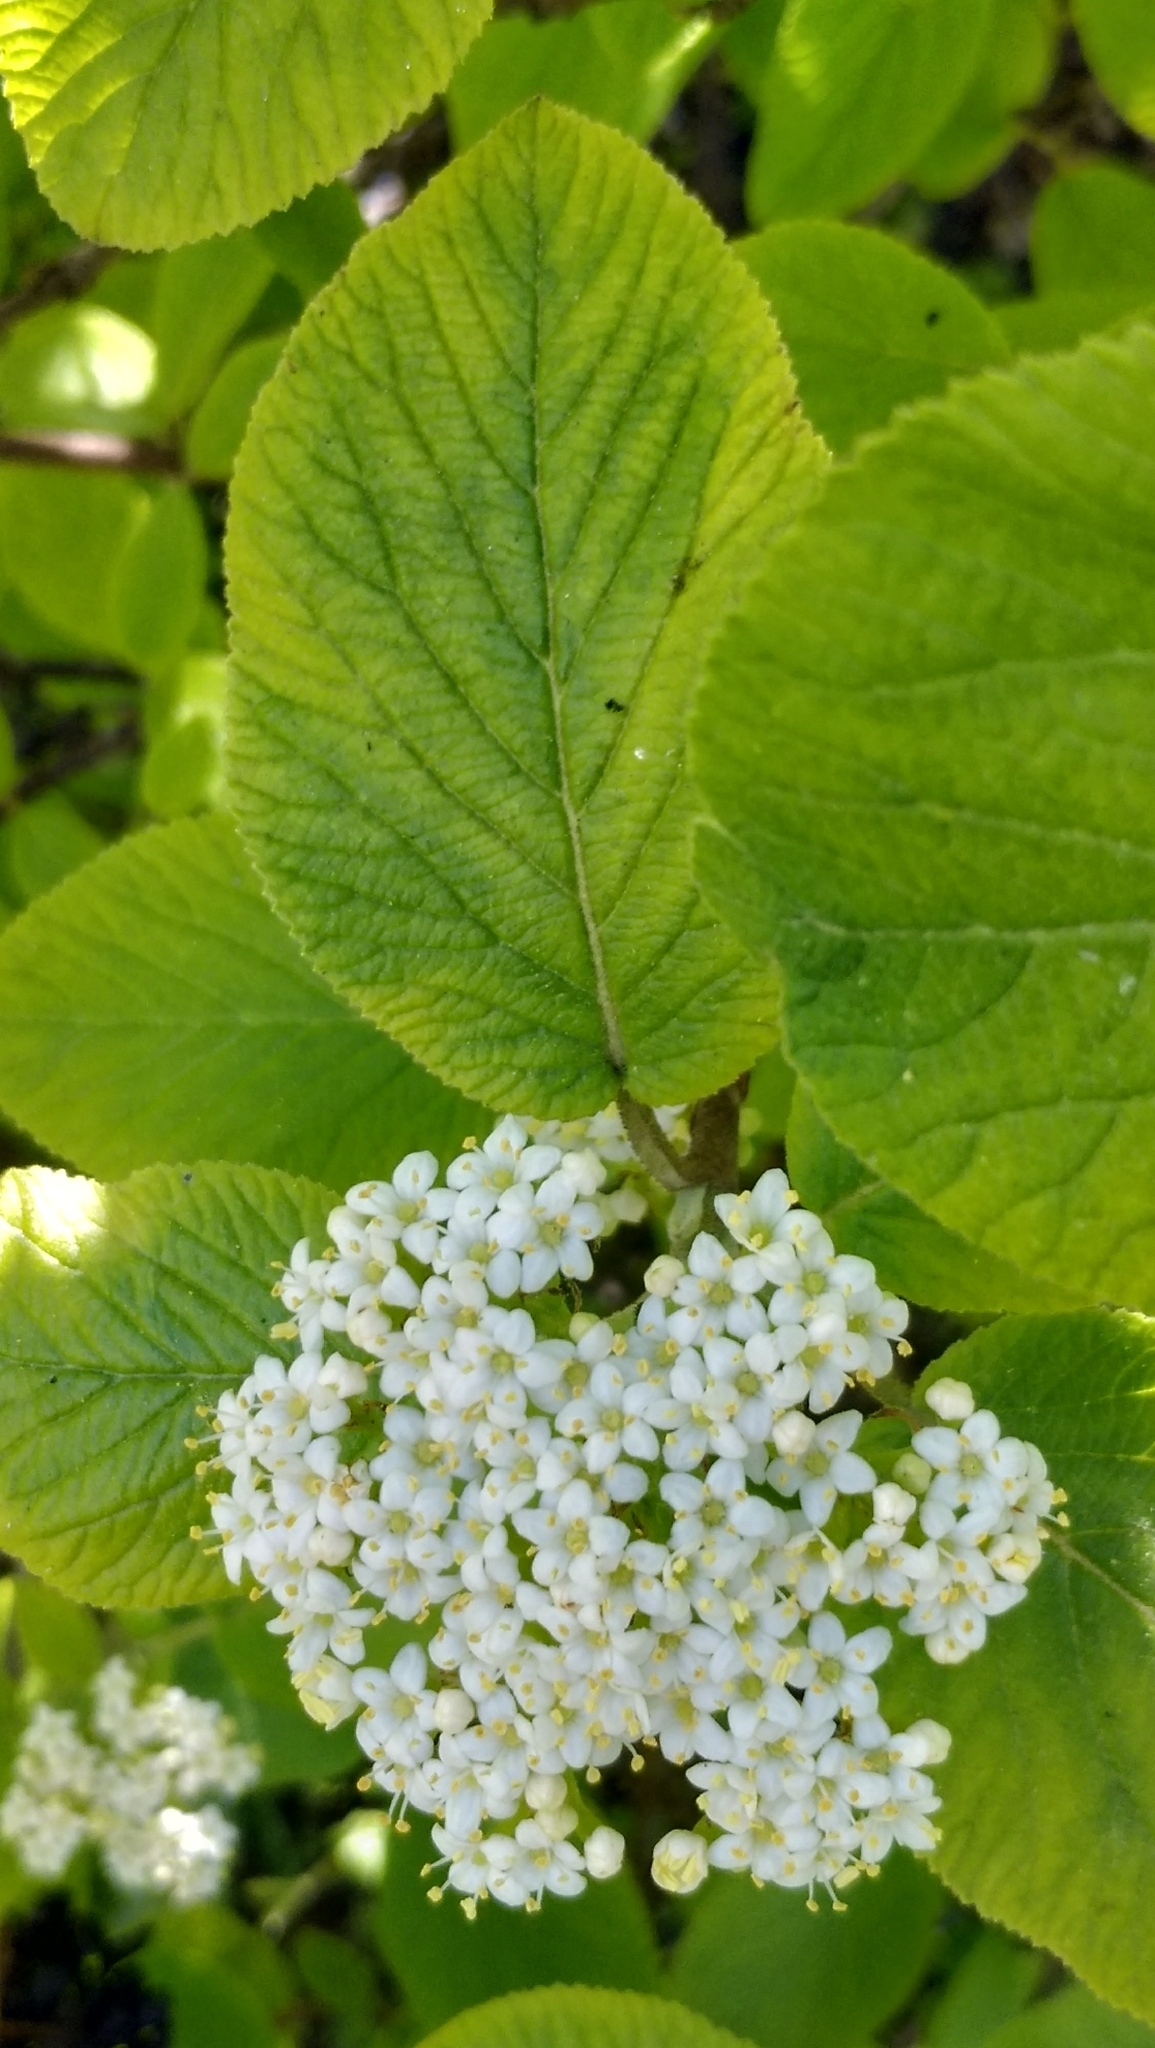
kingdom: Plantae
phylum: Tracheophyta
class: Magnoliopsida
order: Dipsacales
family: Viburnaceae
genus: Viburnum
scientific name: Viburnum lantana
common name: Wayfaring tree
